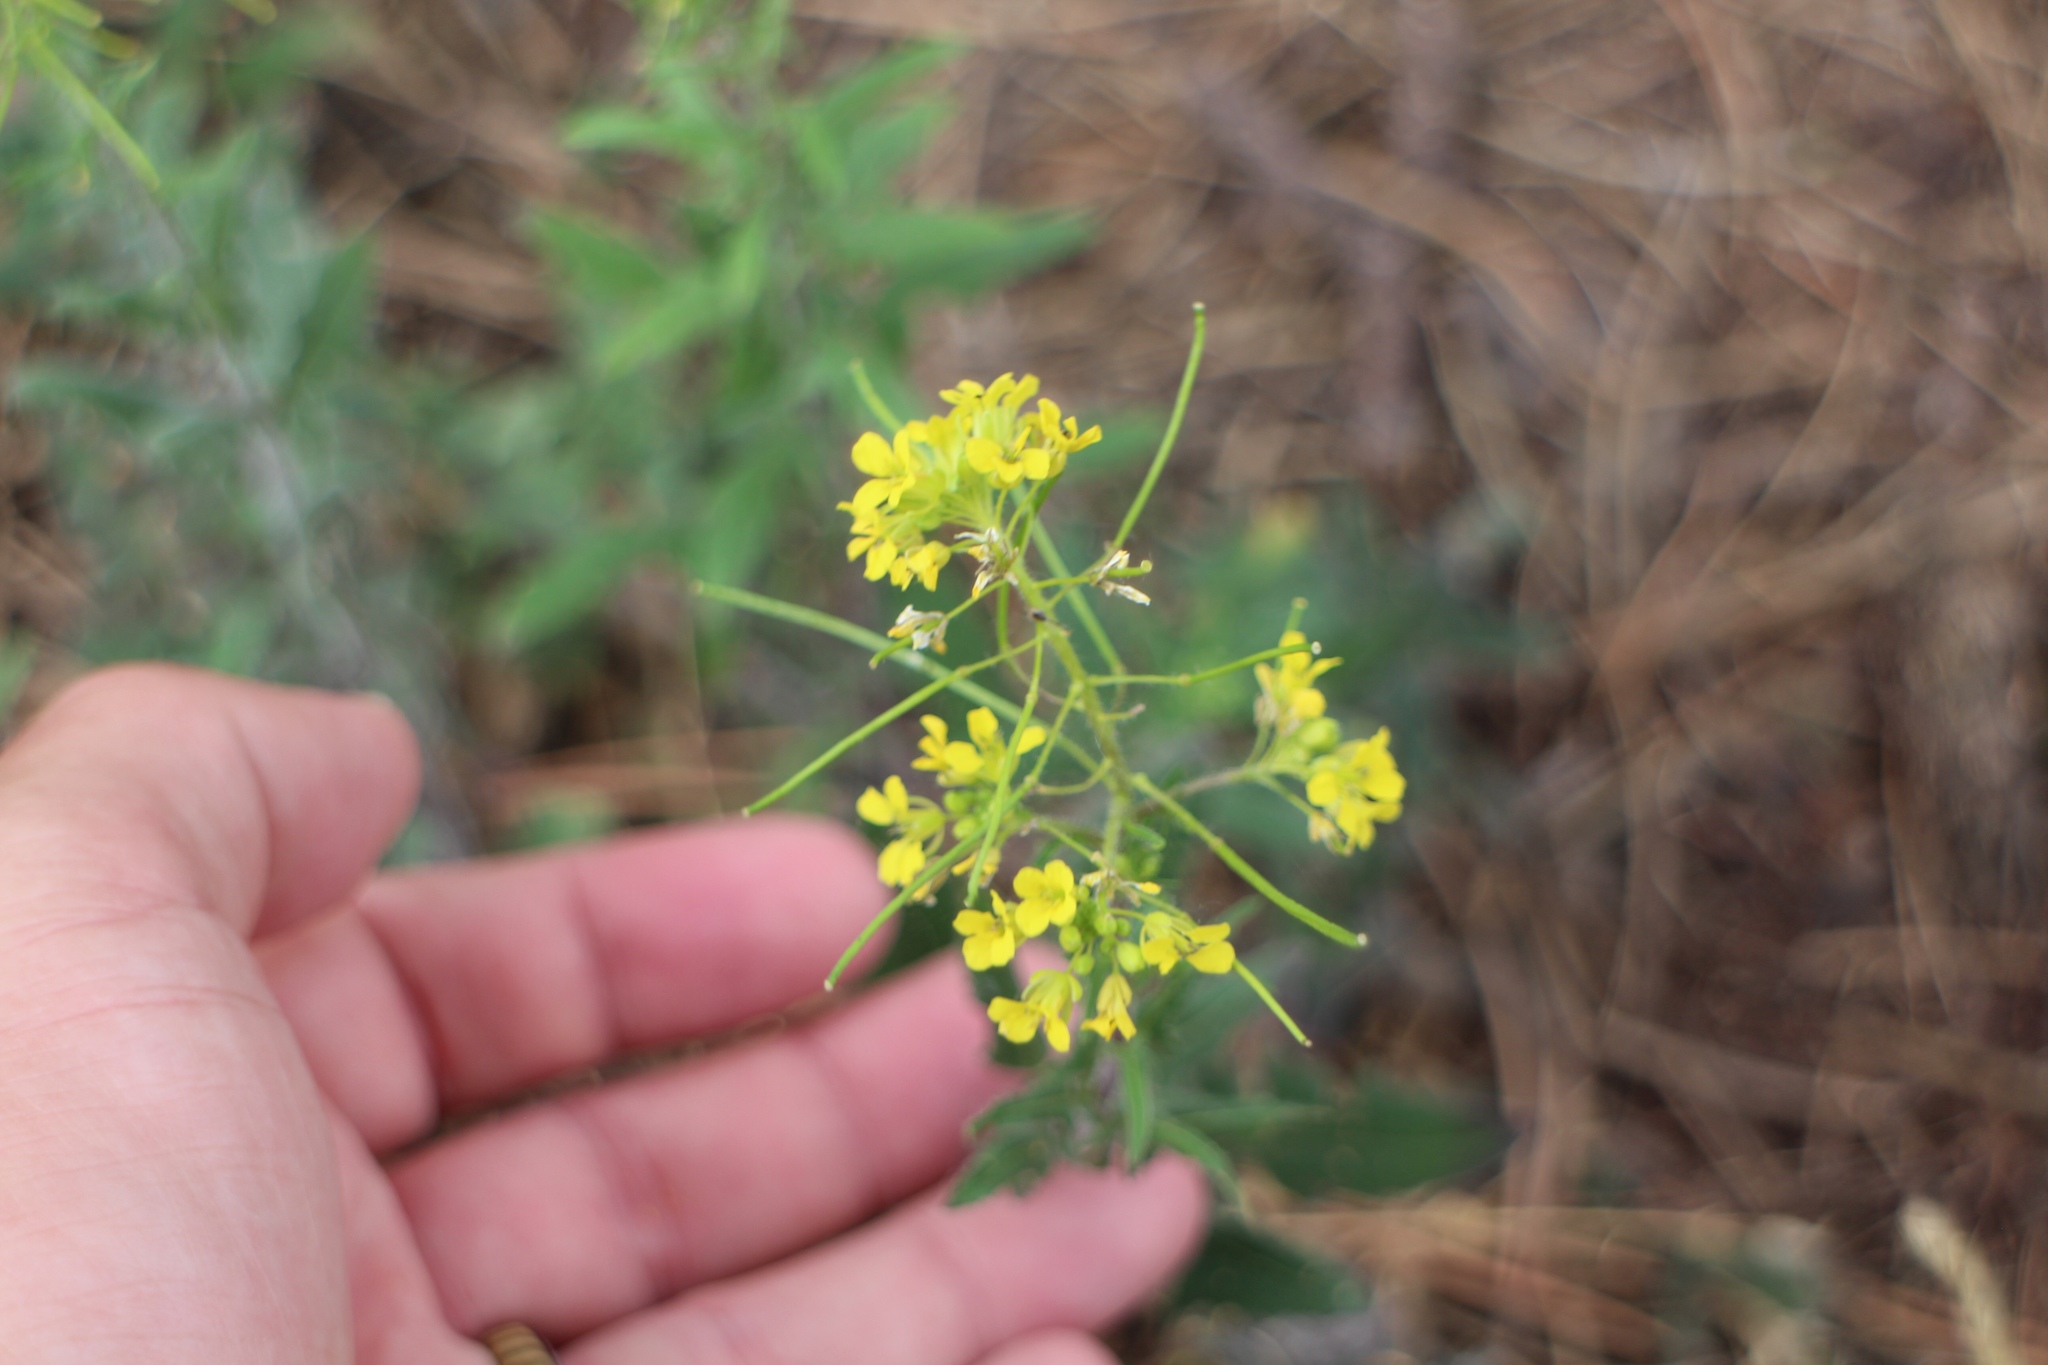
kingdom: Plantae
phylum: Tracheophyta
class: Magnoliopsida
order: Brassicales
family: Brassicaceae
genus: Sisymbrium
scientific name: Sisymbrium loeselii
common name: False london-rocket
